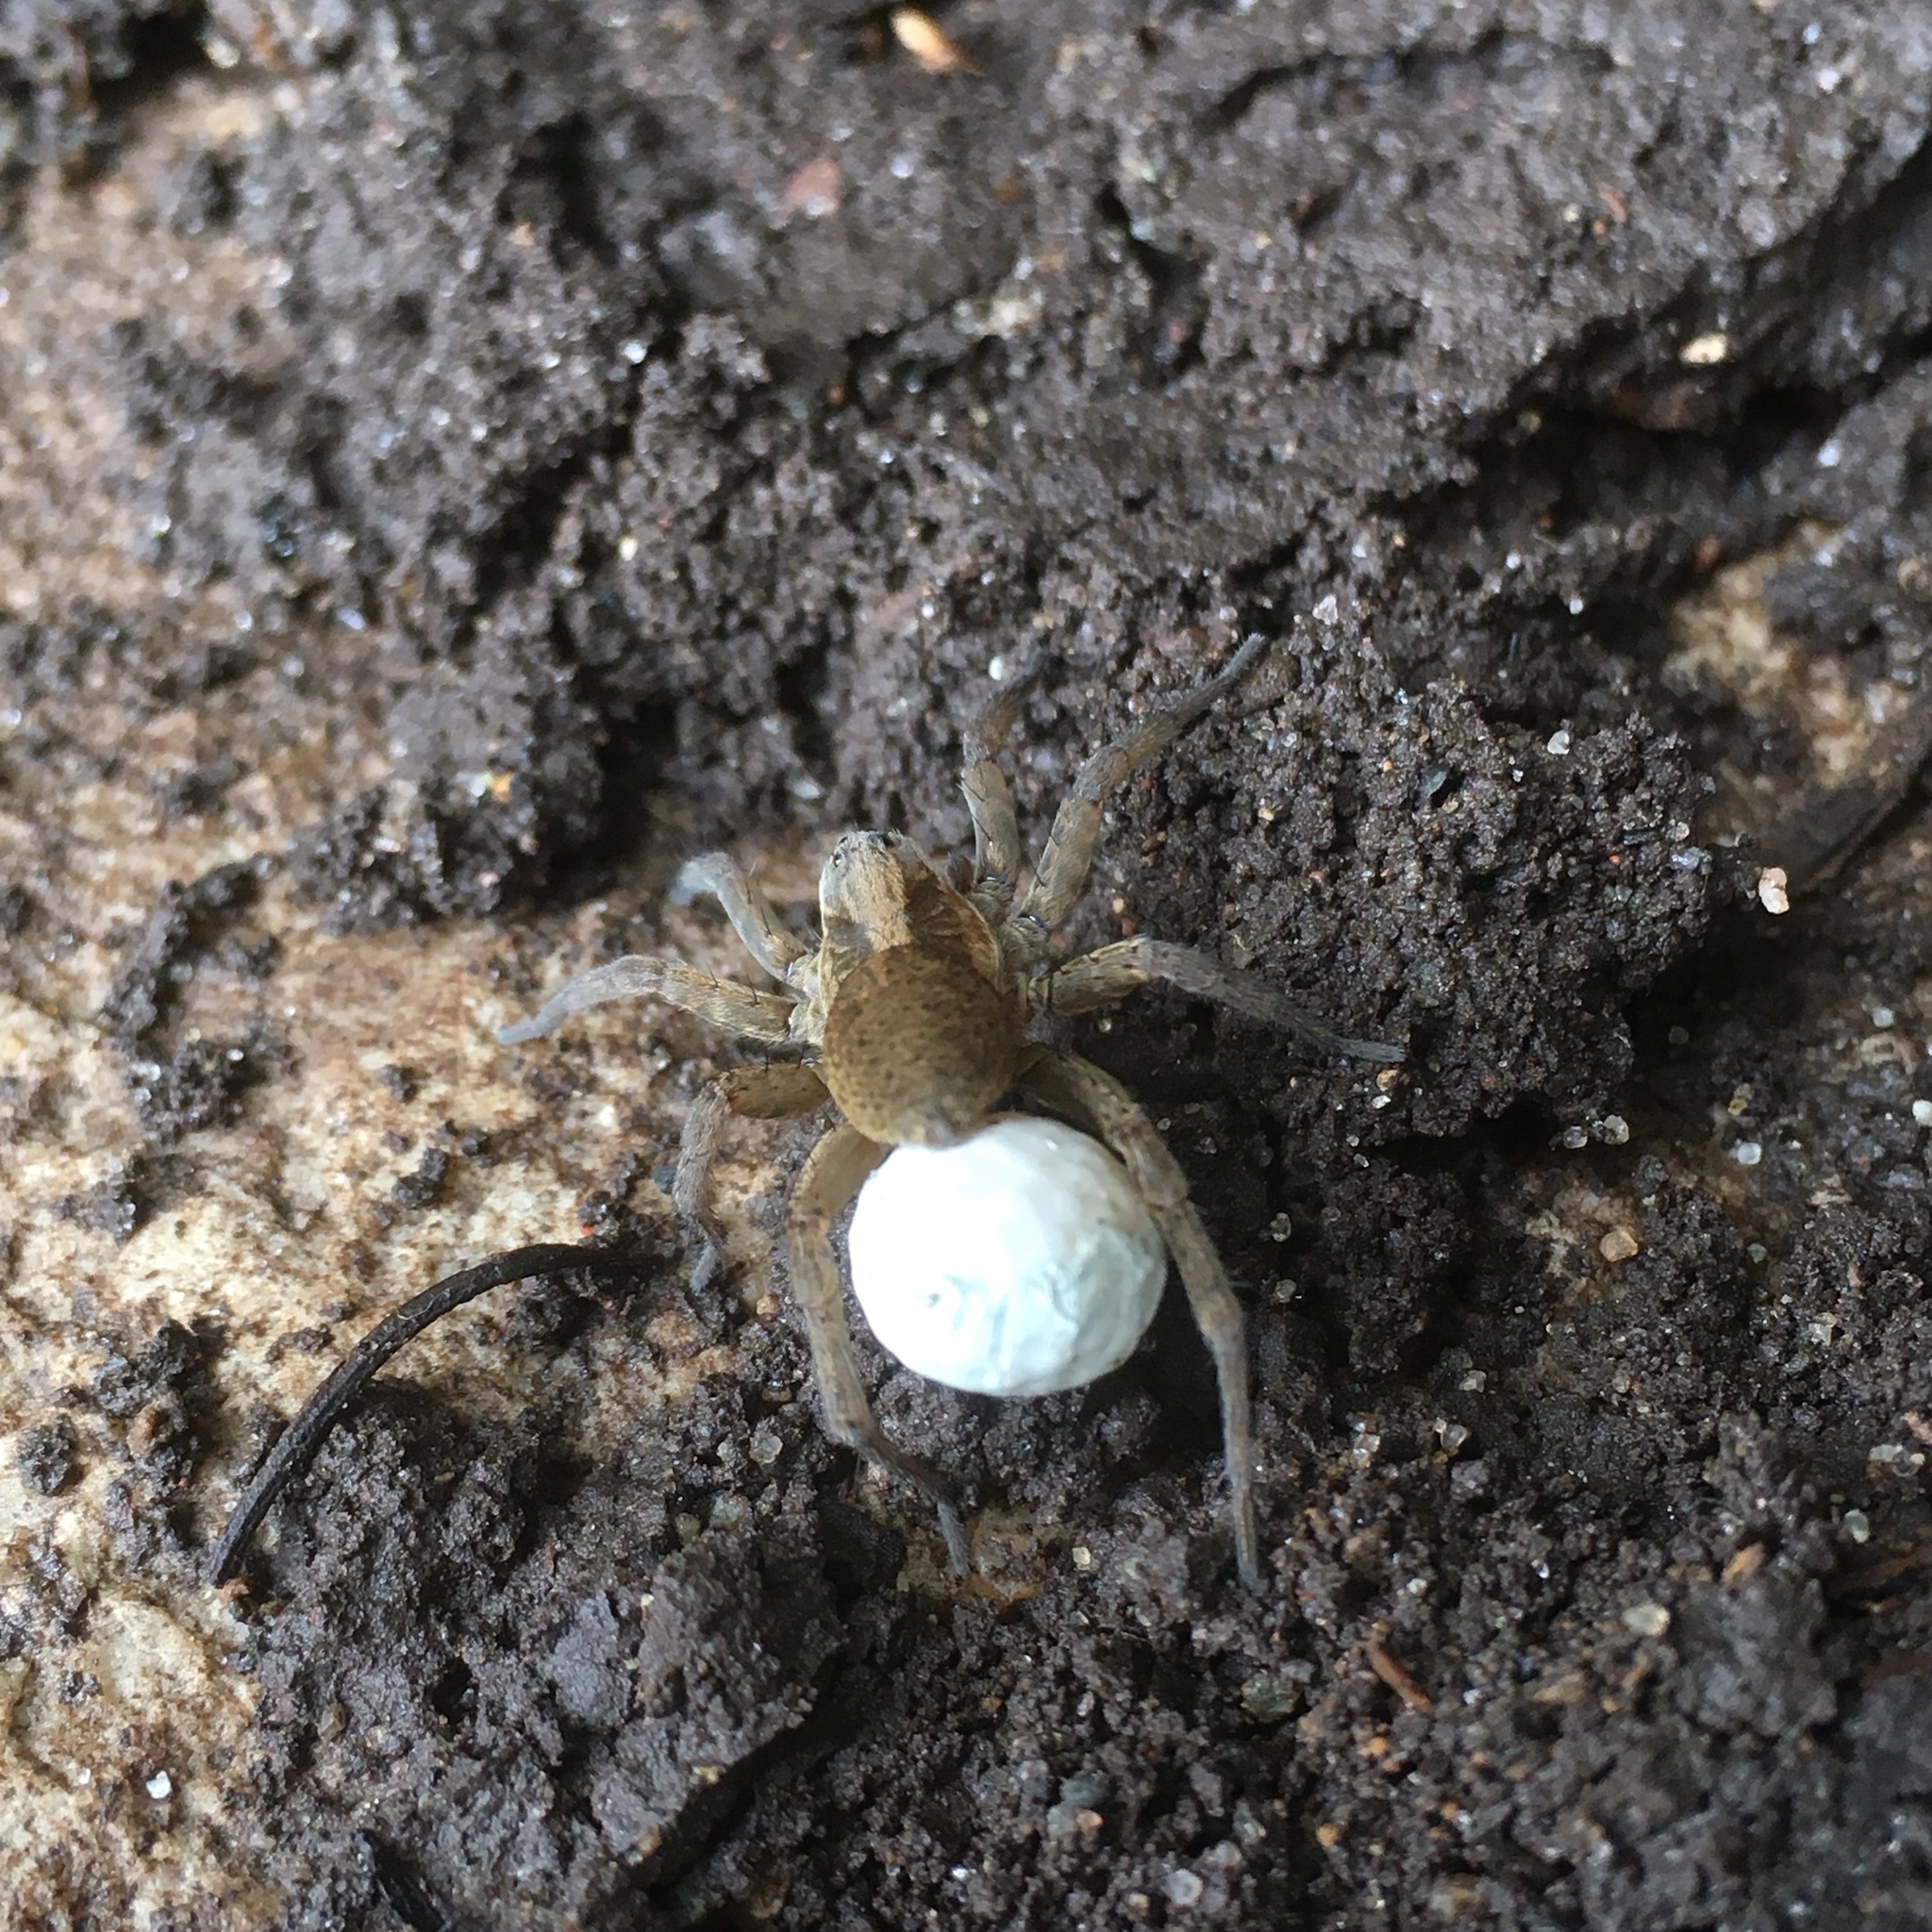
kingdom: Animalia
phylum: Arthropoda
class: Arachnida
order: Araneae
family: Lycosidae
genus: Trochosa
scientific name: Trochosa ruricola
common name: Spider
